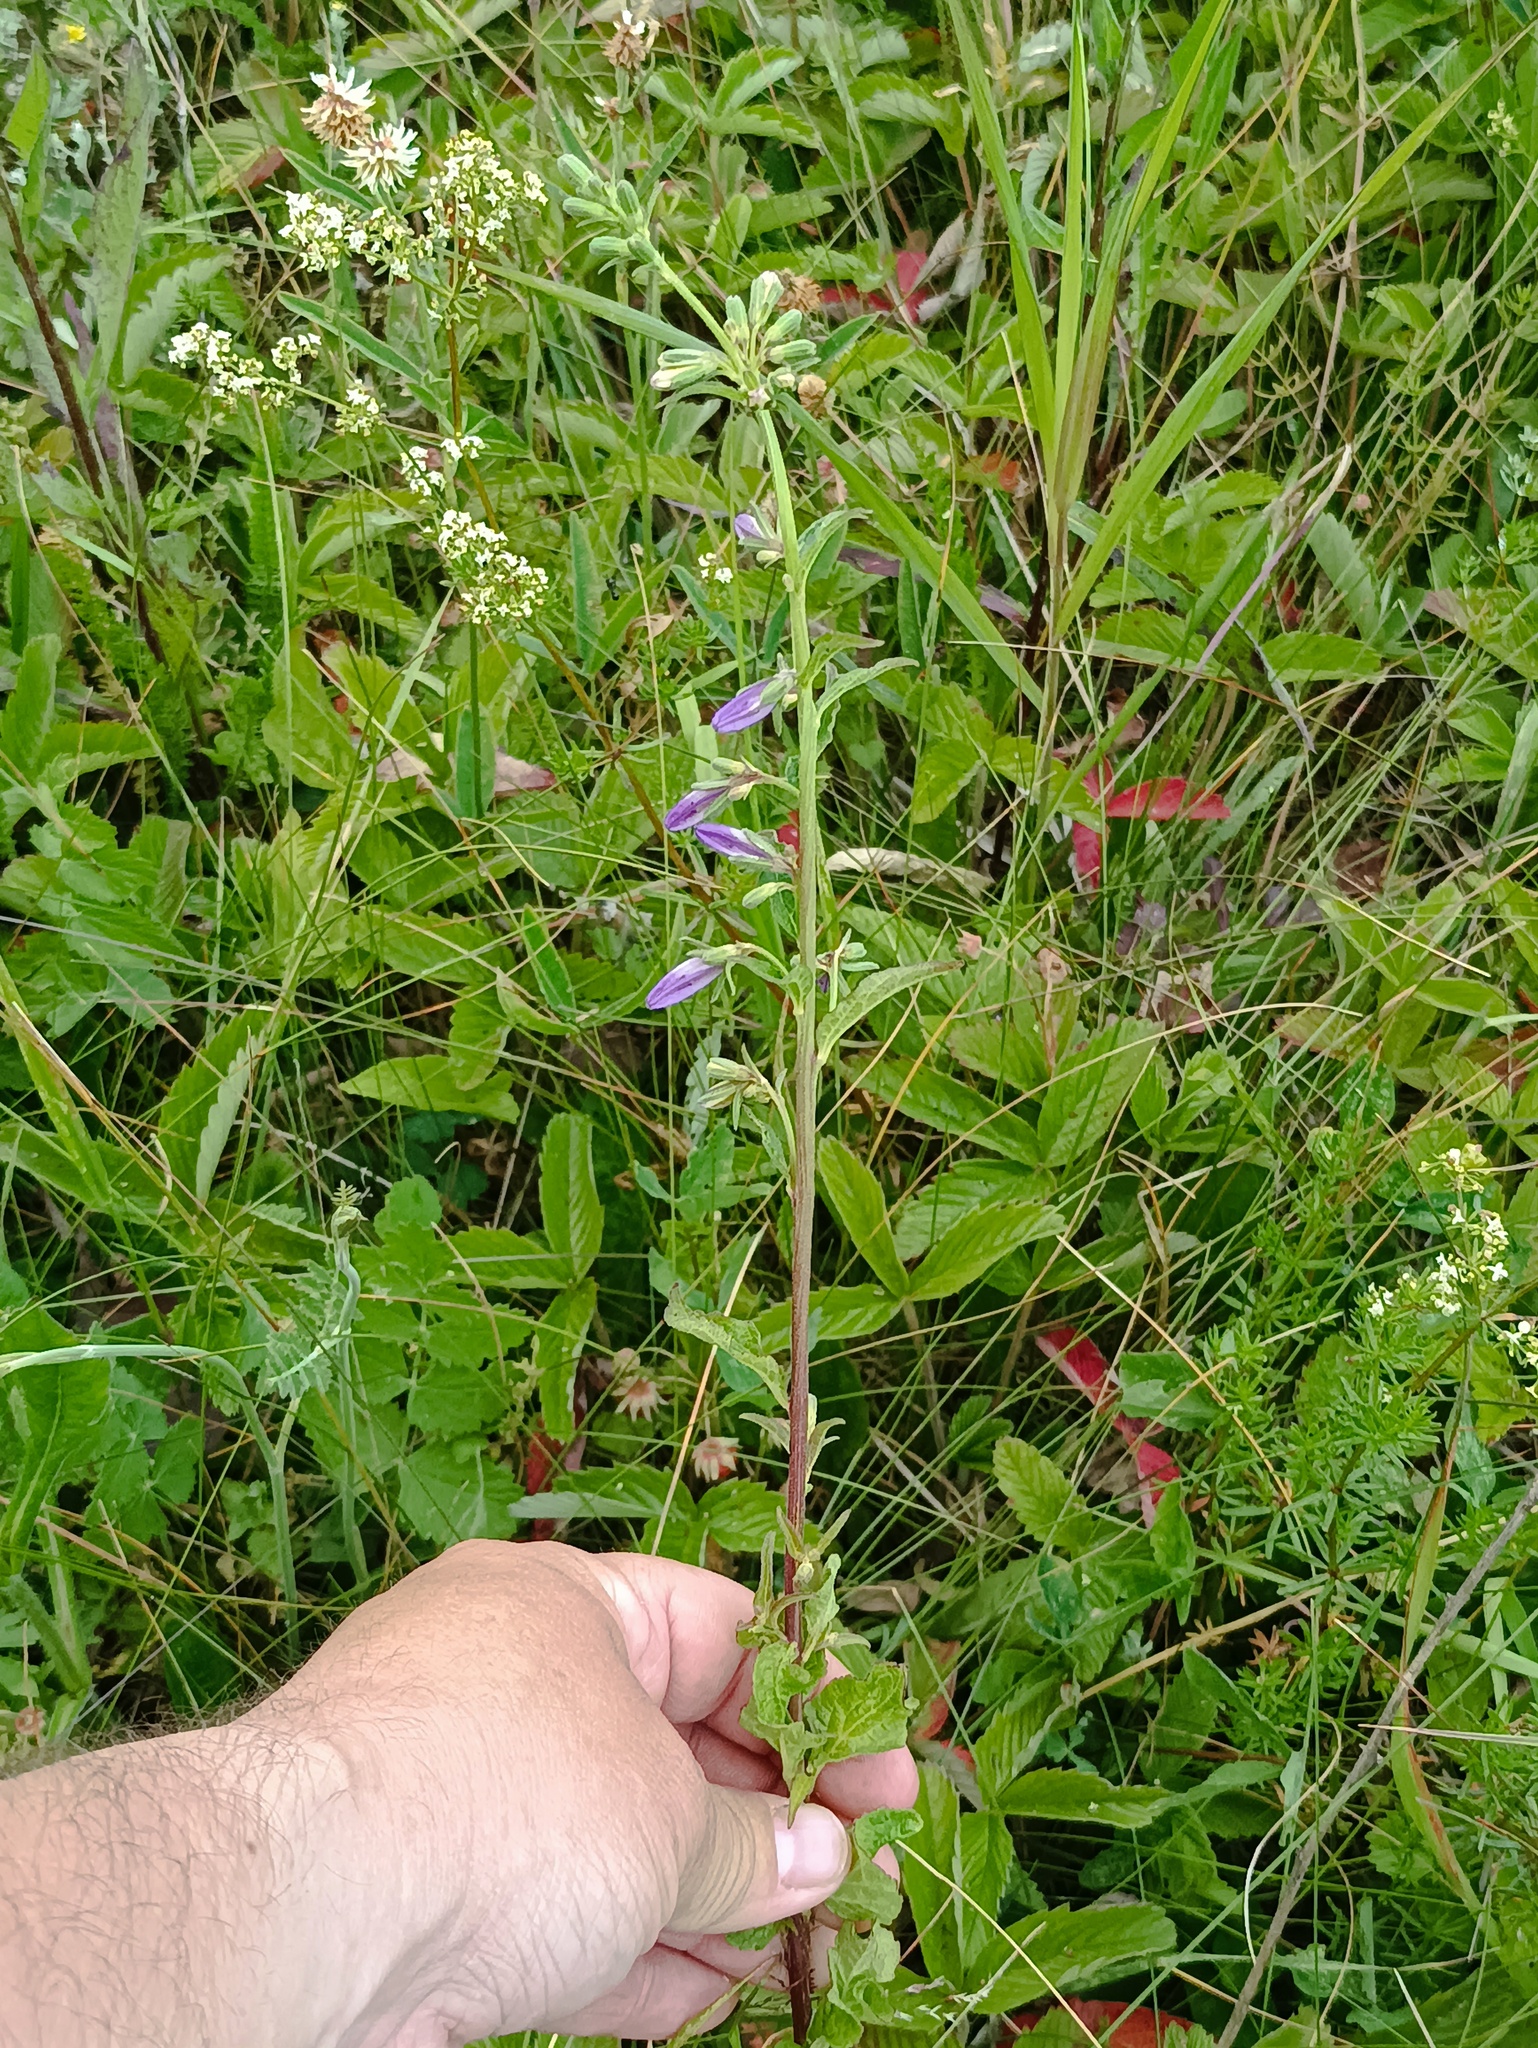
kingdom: Plantae
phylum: Tracheophyta
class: Magnoliopsida
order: Asterales
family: Campanulaceae
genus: Campanula
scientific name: Campanula bononiensis
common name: Pale bellflower
